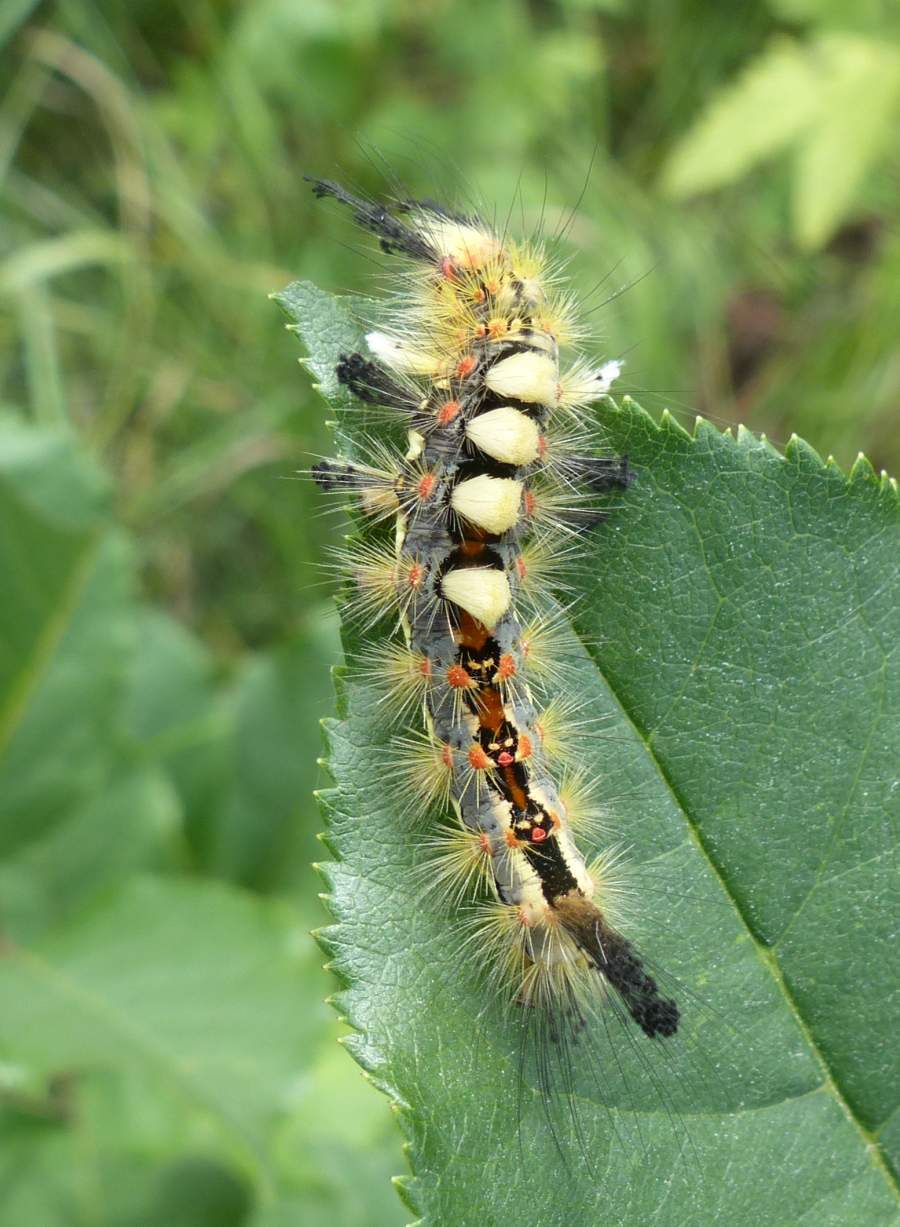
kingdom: Animalia
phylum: Arthropoda
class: Insecta
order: Lepidoptera
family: Erebidae
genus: Orgyia
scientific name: Orgyia antiqua
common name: Vapourer
